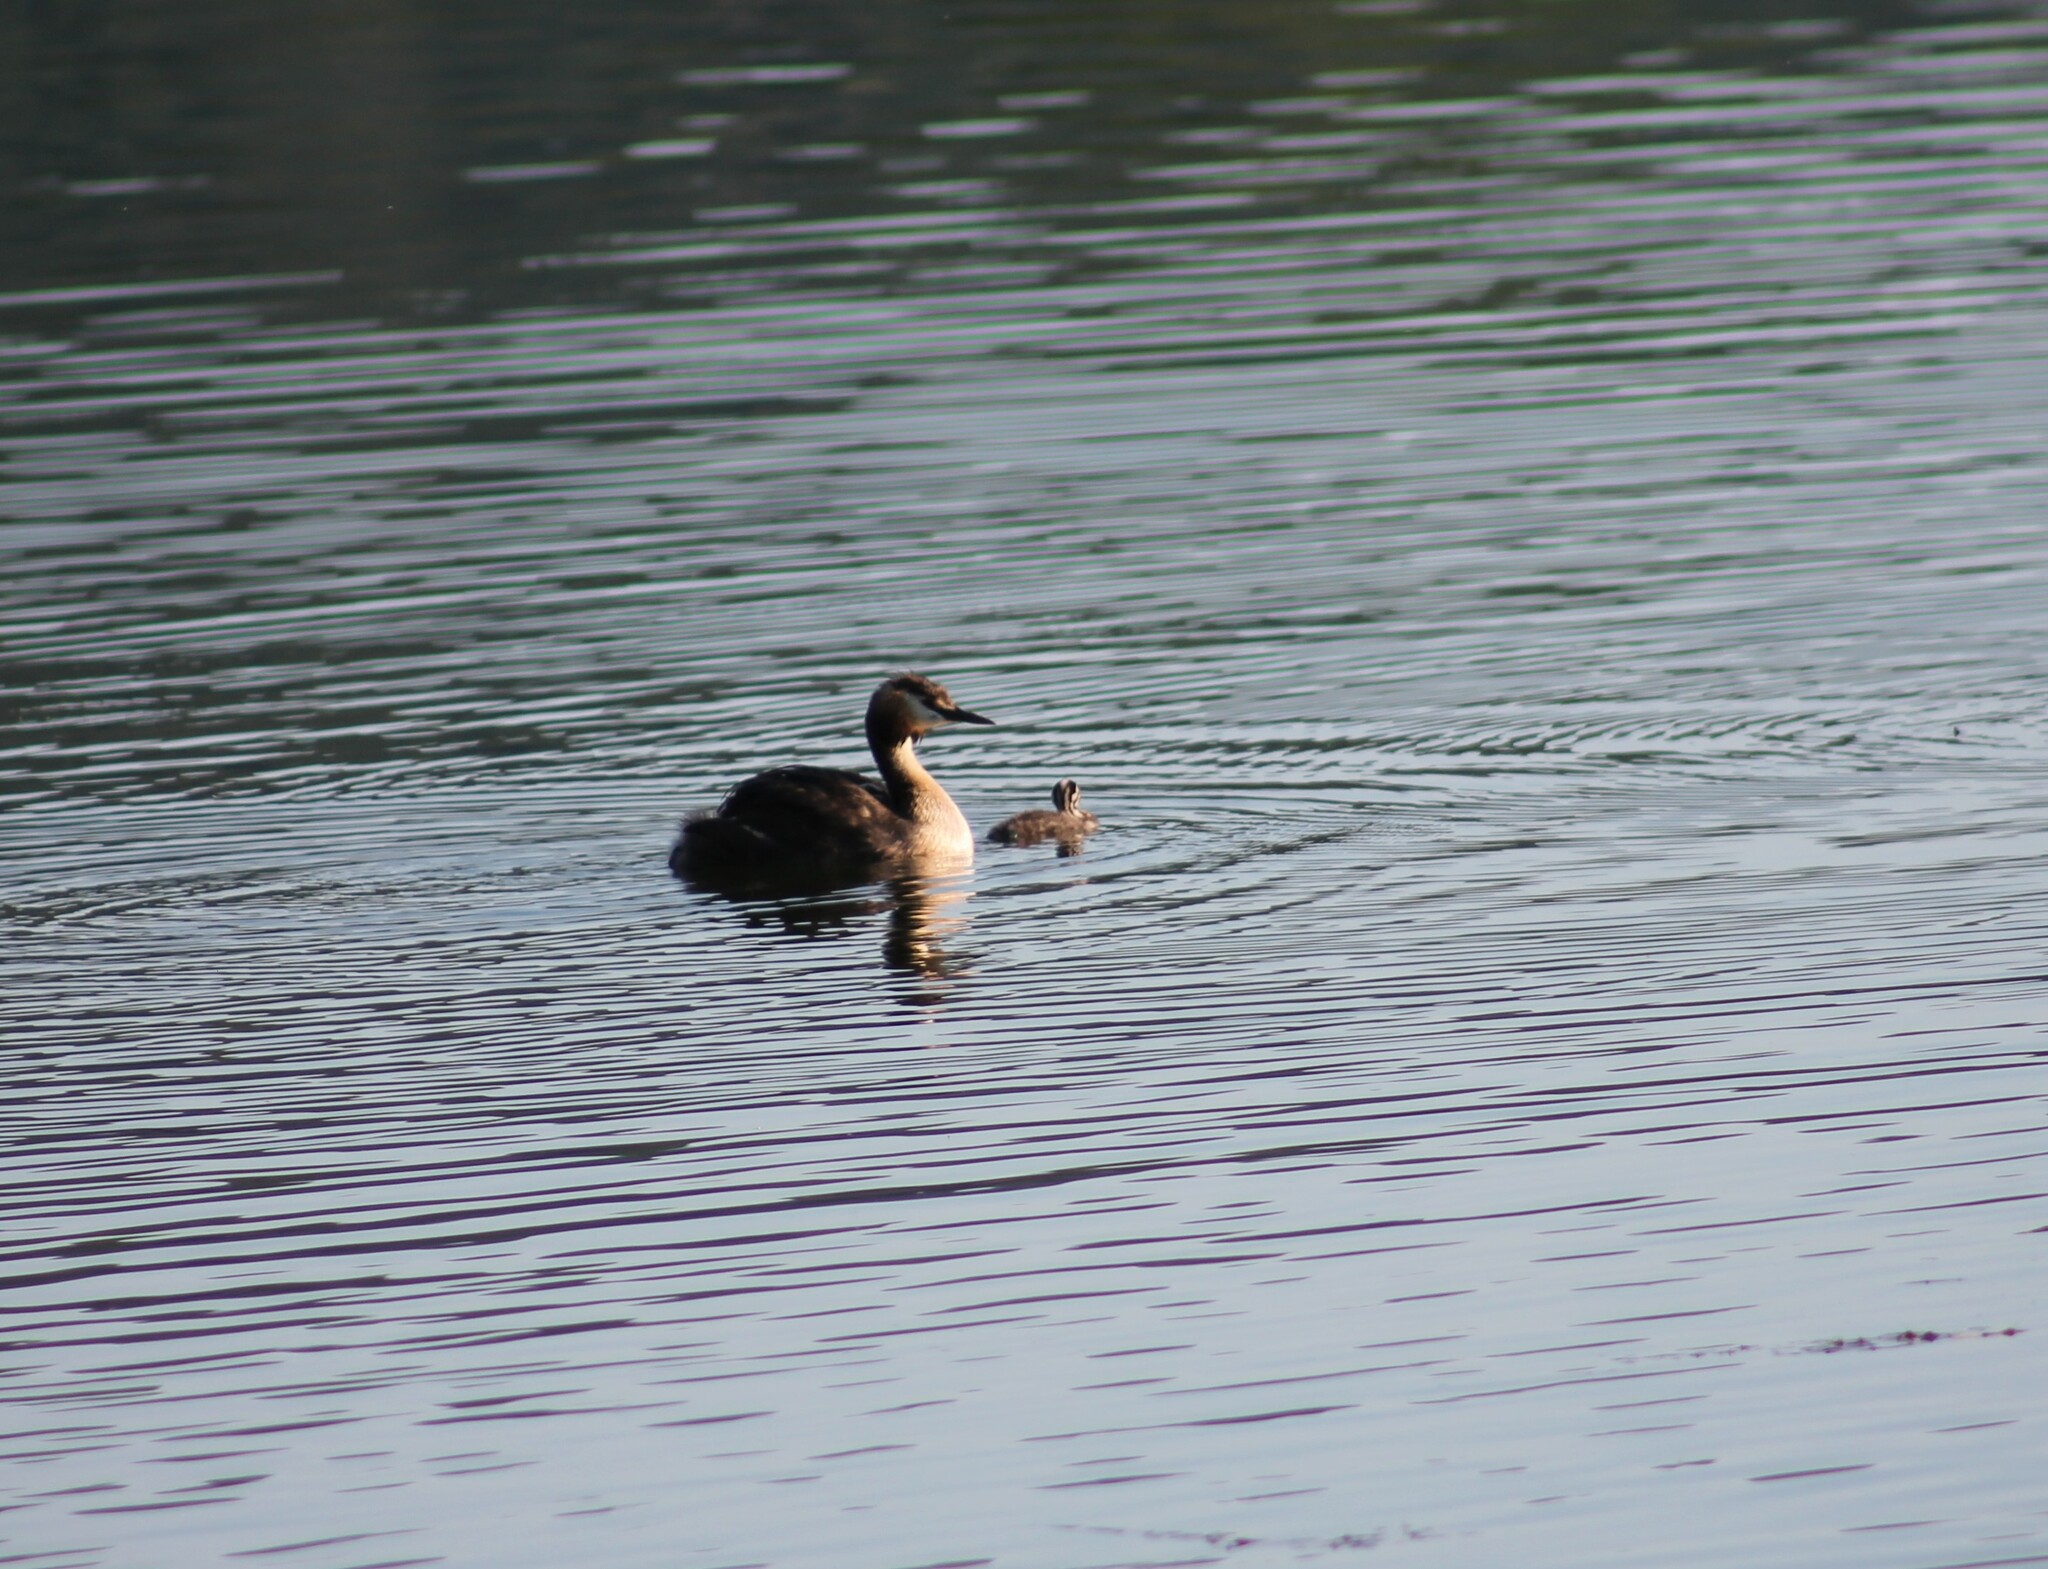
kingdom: Animalia
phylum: Chordata
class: Aves
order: Podicipediformes
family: Podicipedidae
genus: Podiceps
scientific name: Podiceps cristatus
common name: Great crested grebe
